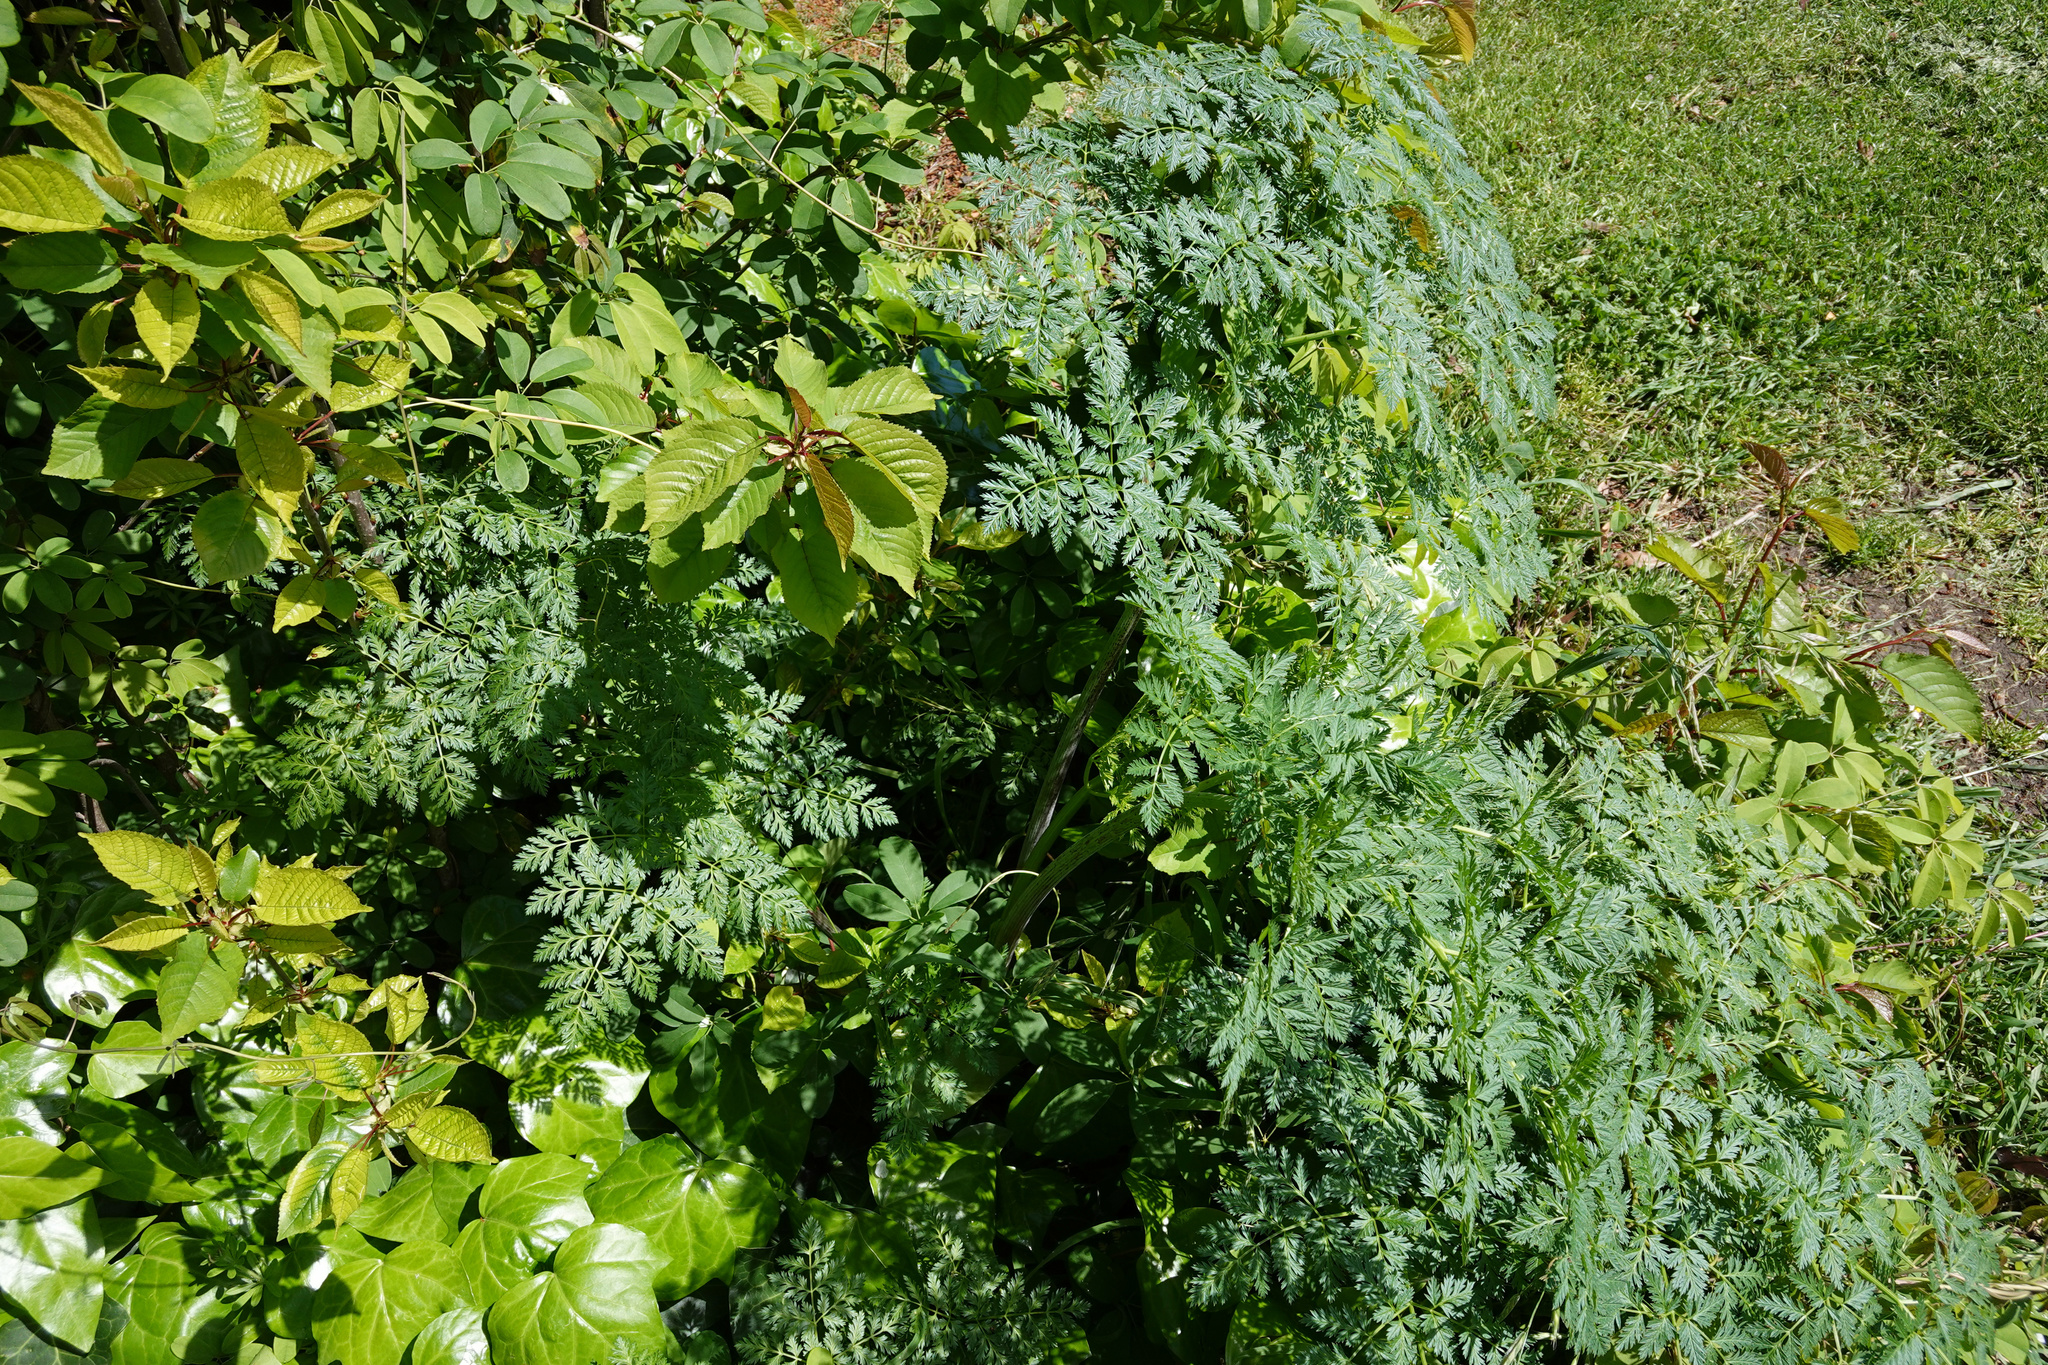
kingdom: Plantae
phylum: Tracheophyta
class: Magnoliopsida
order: Apiales
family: Apiaceae
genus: Conium
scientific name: Conium maculatum
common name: Hemlock
